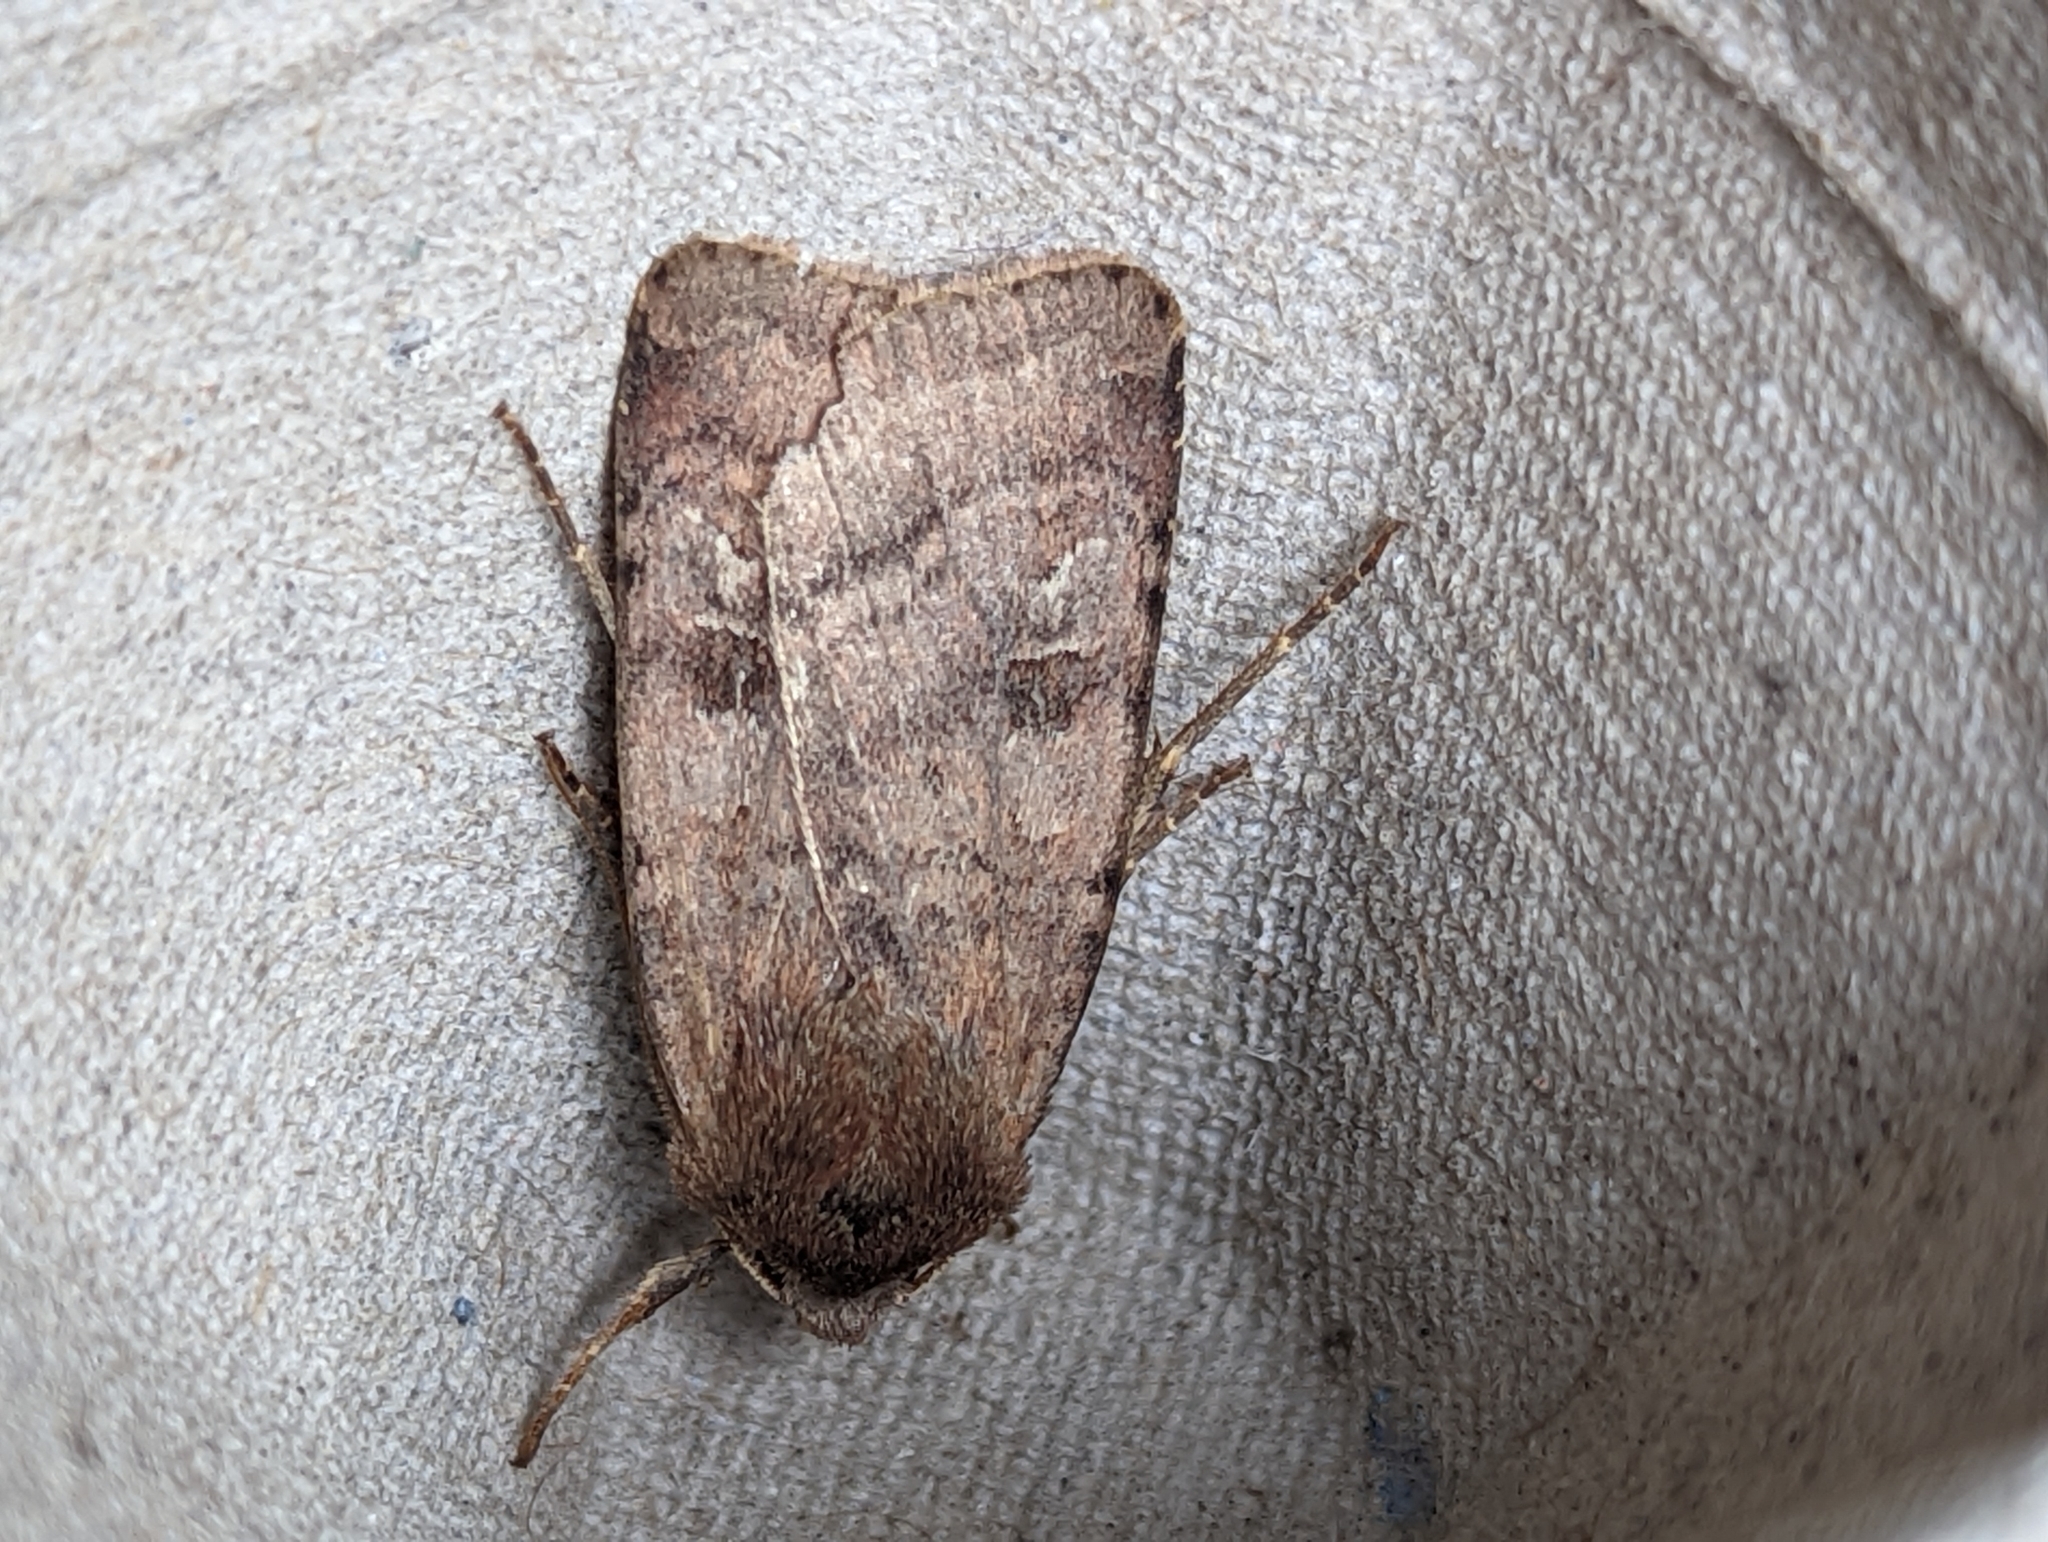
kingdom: Animalia
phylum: Arthropoda
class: Insecta
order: Lepidoptera
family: Noctuidae
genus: Diarsia
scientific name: Diarsia rubi
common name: Small square-spot
